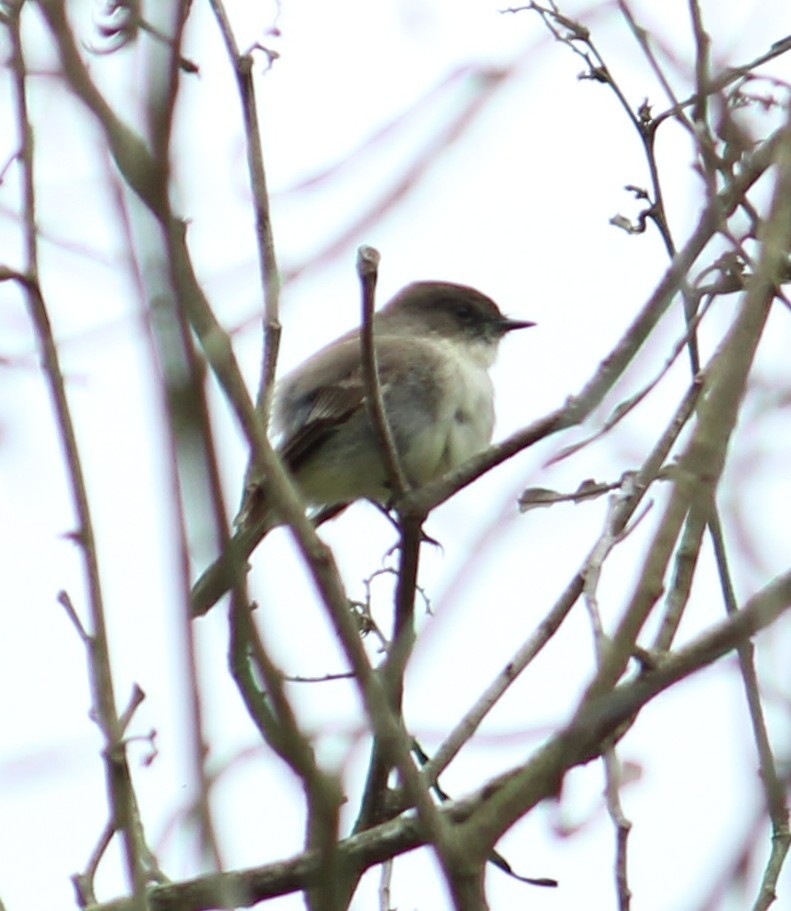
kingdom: Animalia
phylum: Chordata
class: Aves
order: Passeriformes
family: Tyrannidae
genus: Sayornis
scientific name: Sayornis phoebe
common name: Eastern phoebe
